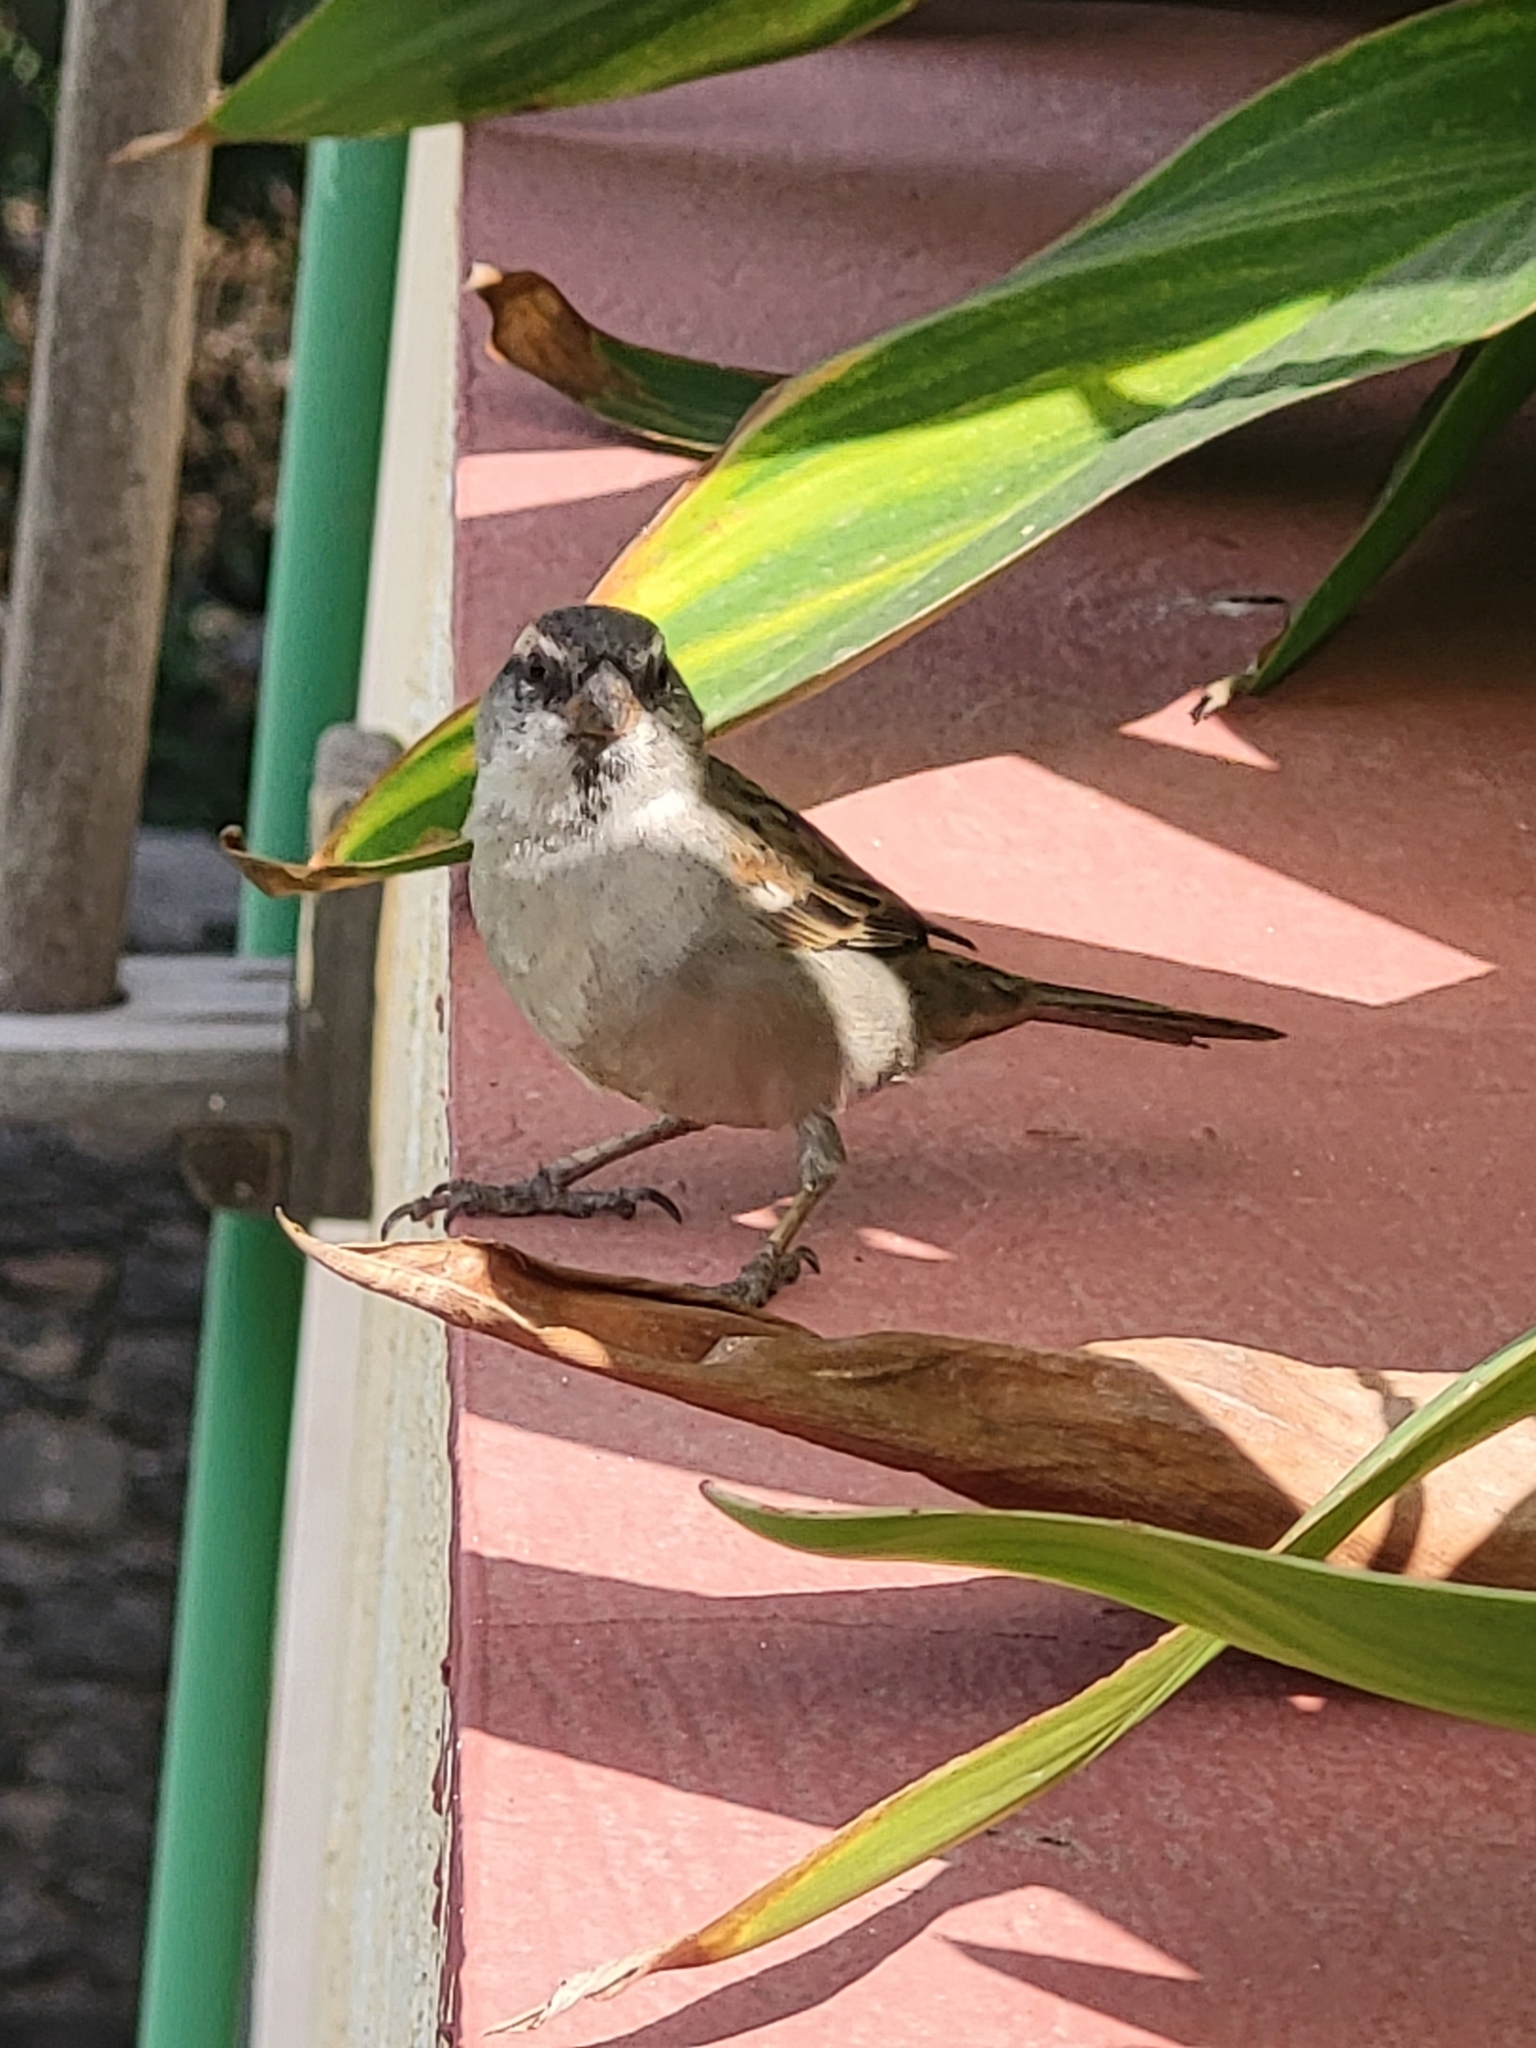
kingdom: Animalia
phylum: Chordata
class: Aves
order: Passeriformes
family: Passeridae
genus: Passer
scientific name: Passer iagoensis
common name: Iago sparrow
